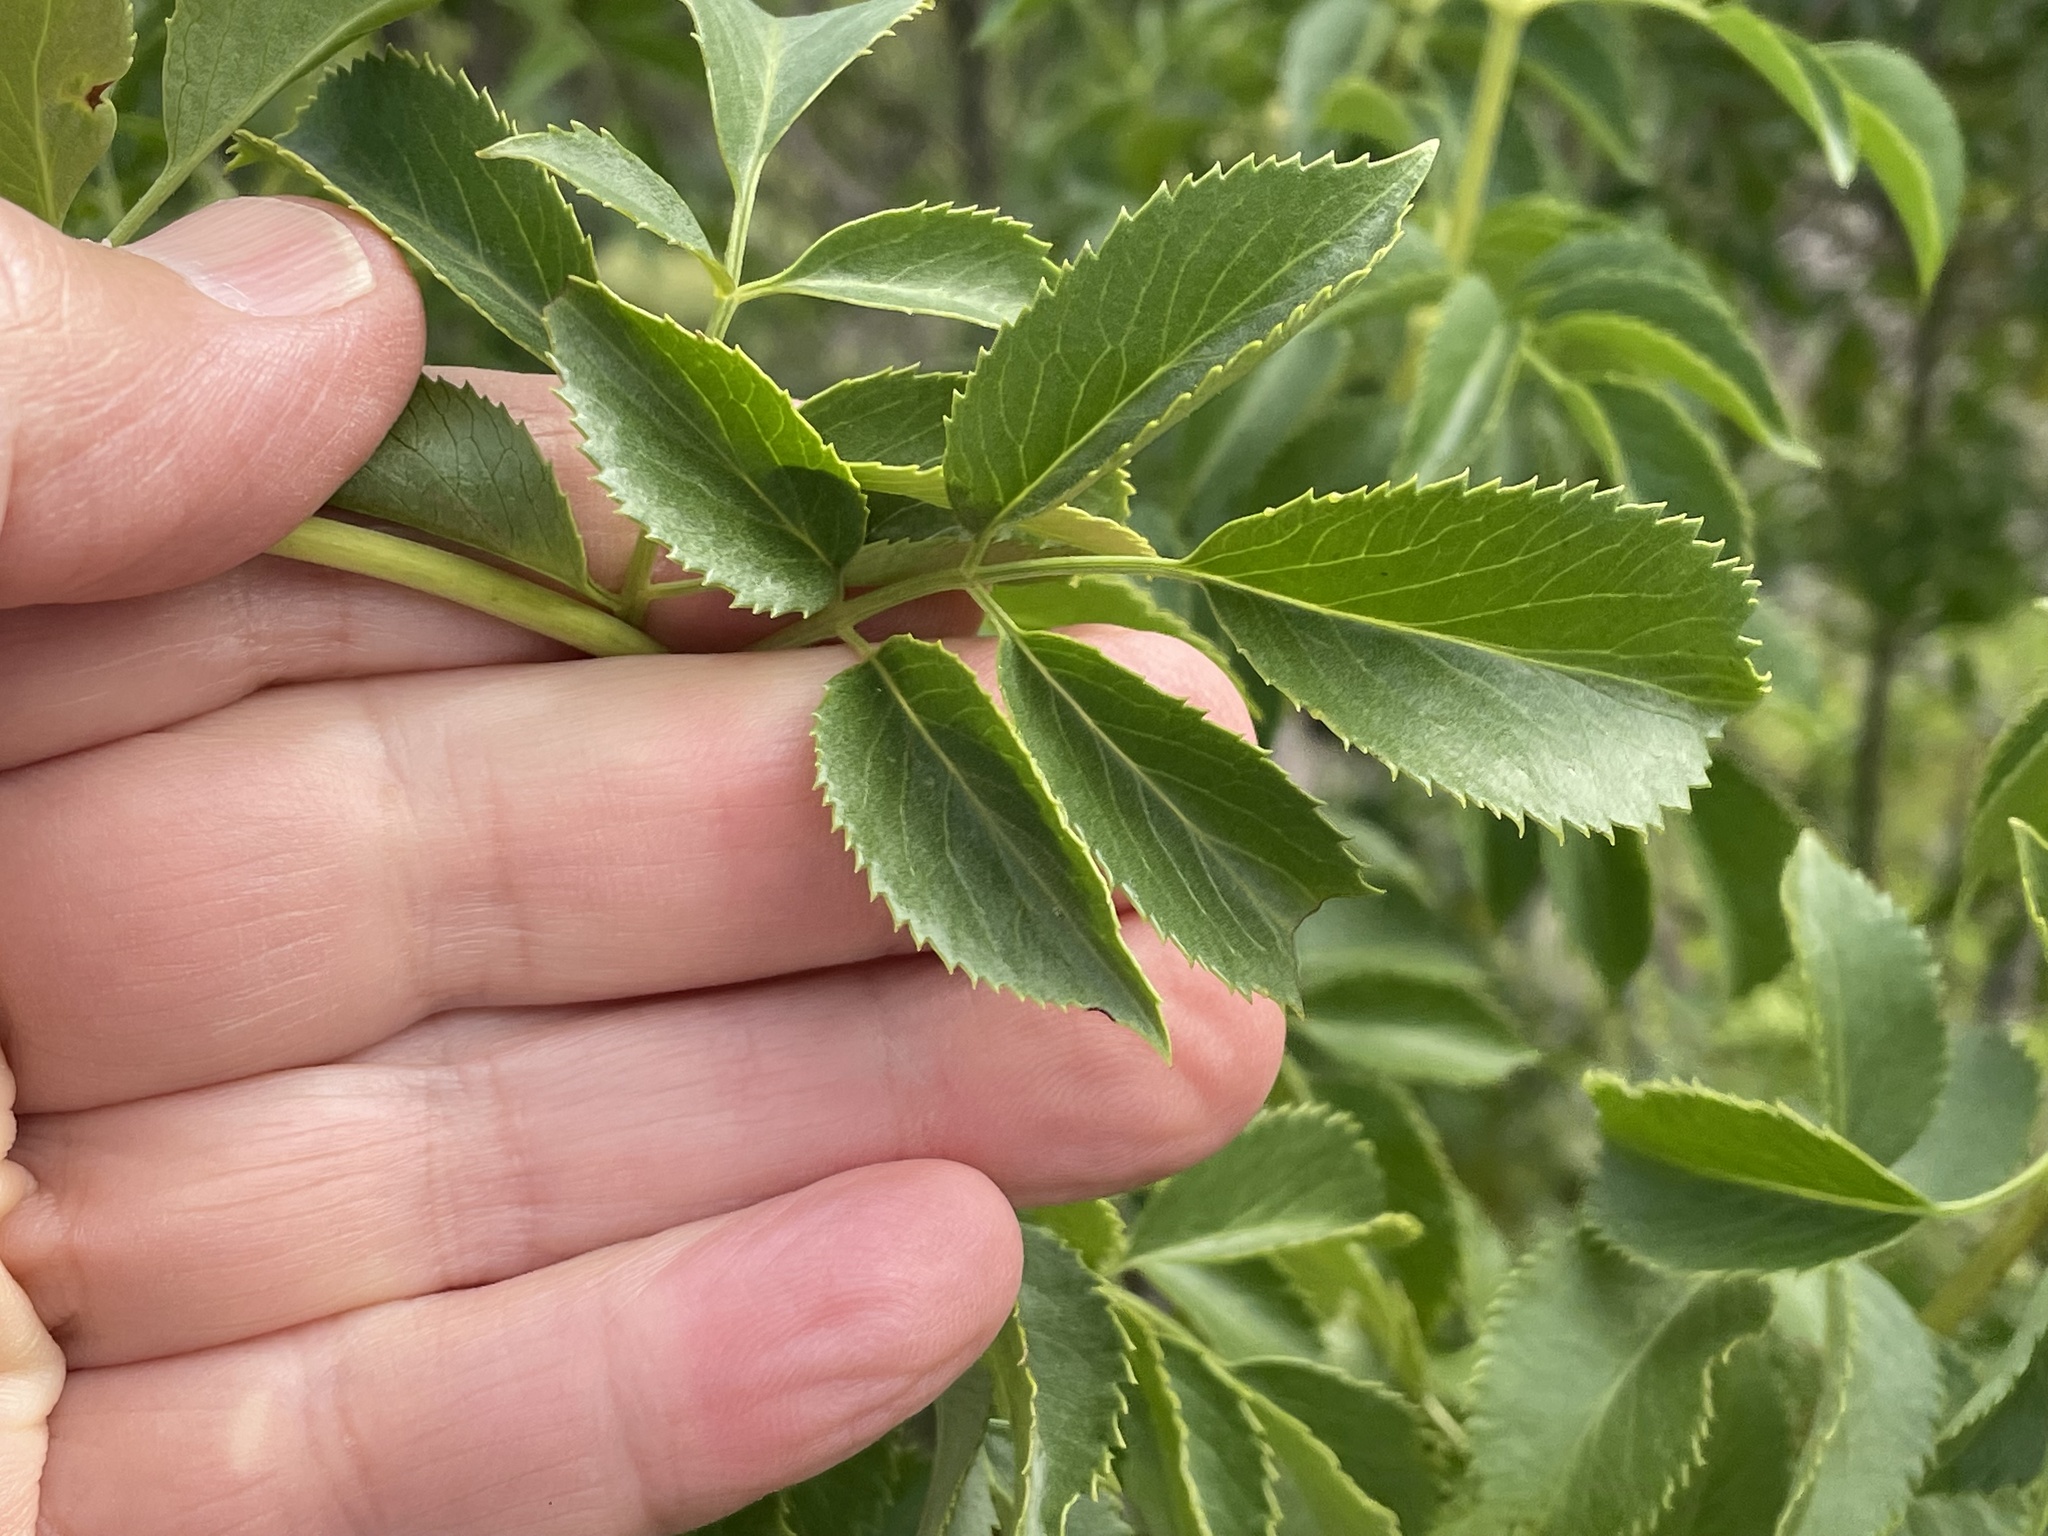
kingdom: Plantae
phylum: Tracheophyta
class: Magnoliopsida
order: Dipsacales
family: Viburnaceae
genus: Sambucus
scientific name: Sambucus cerulea
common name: Blue elder
